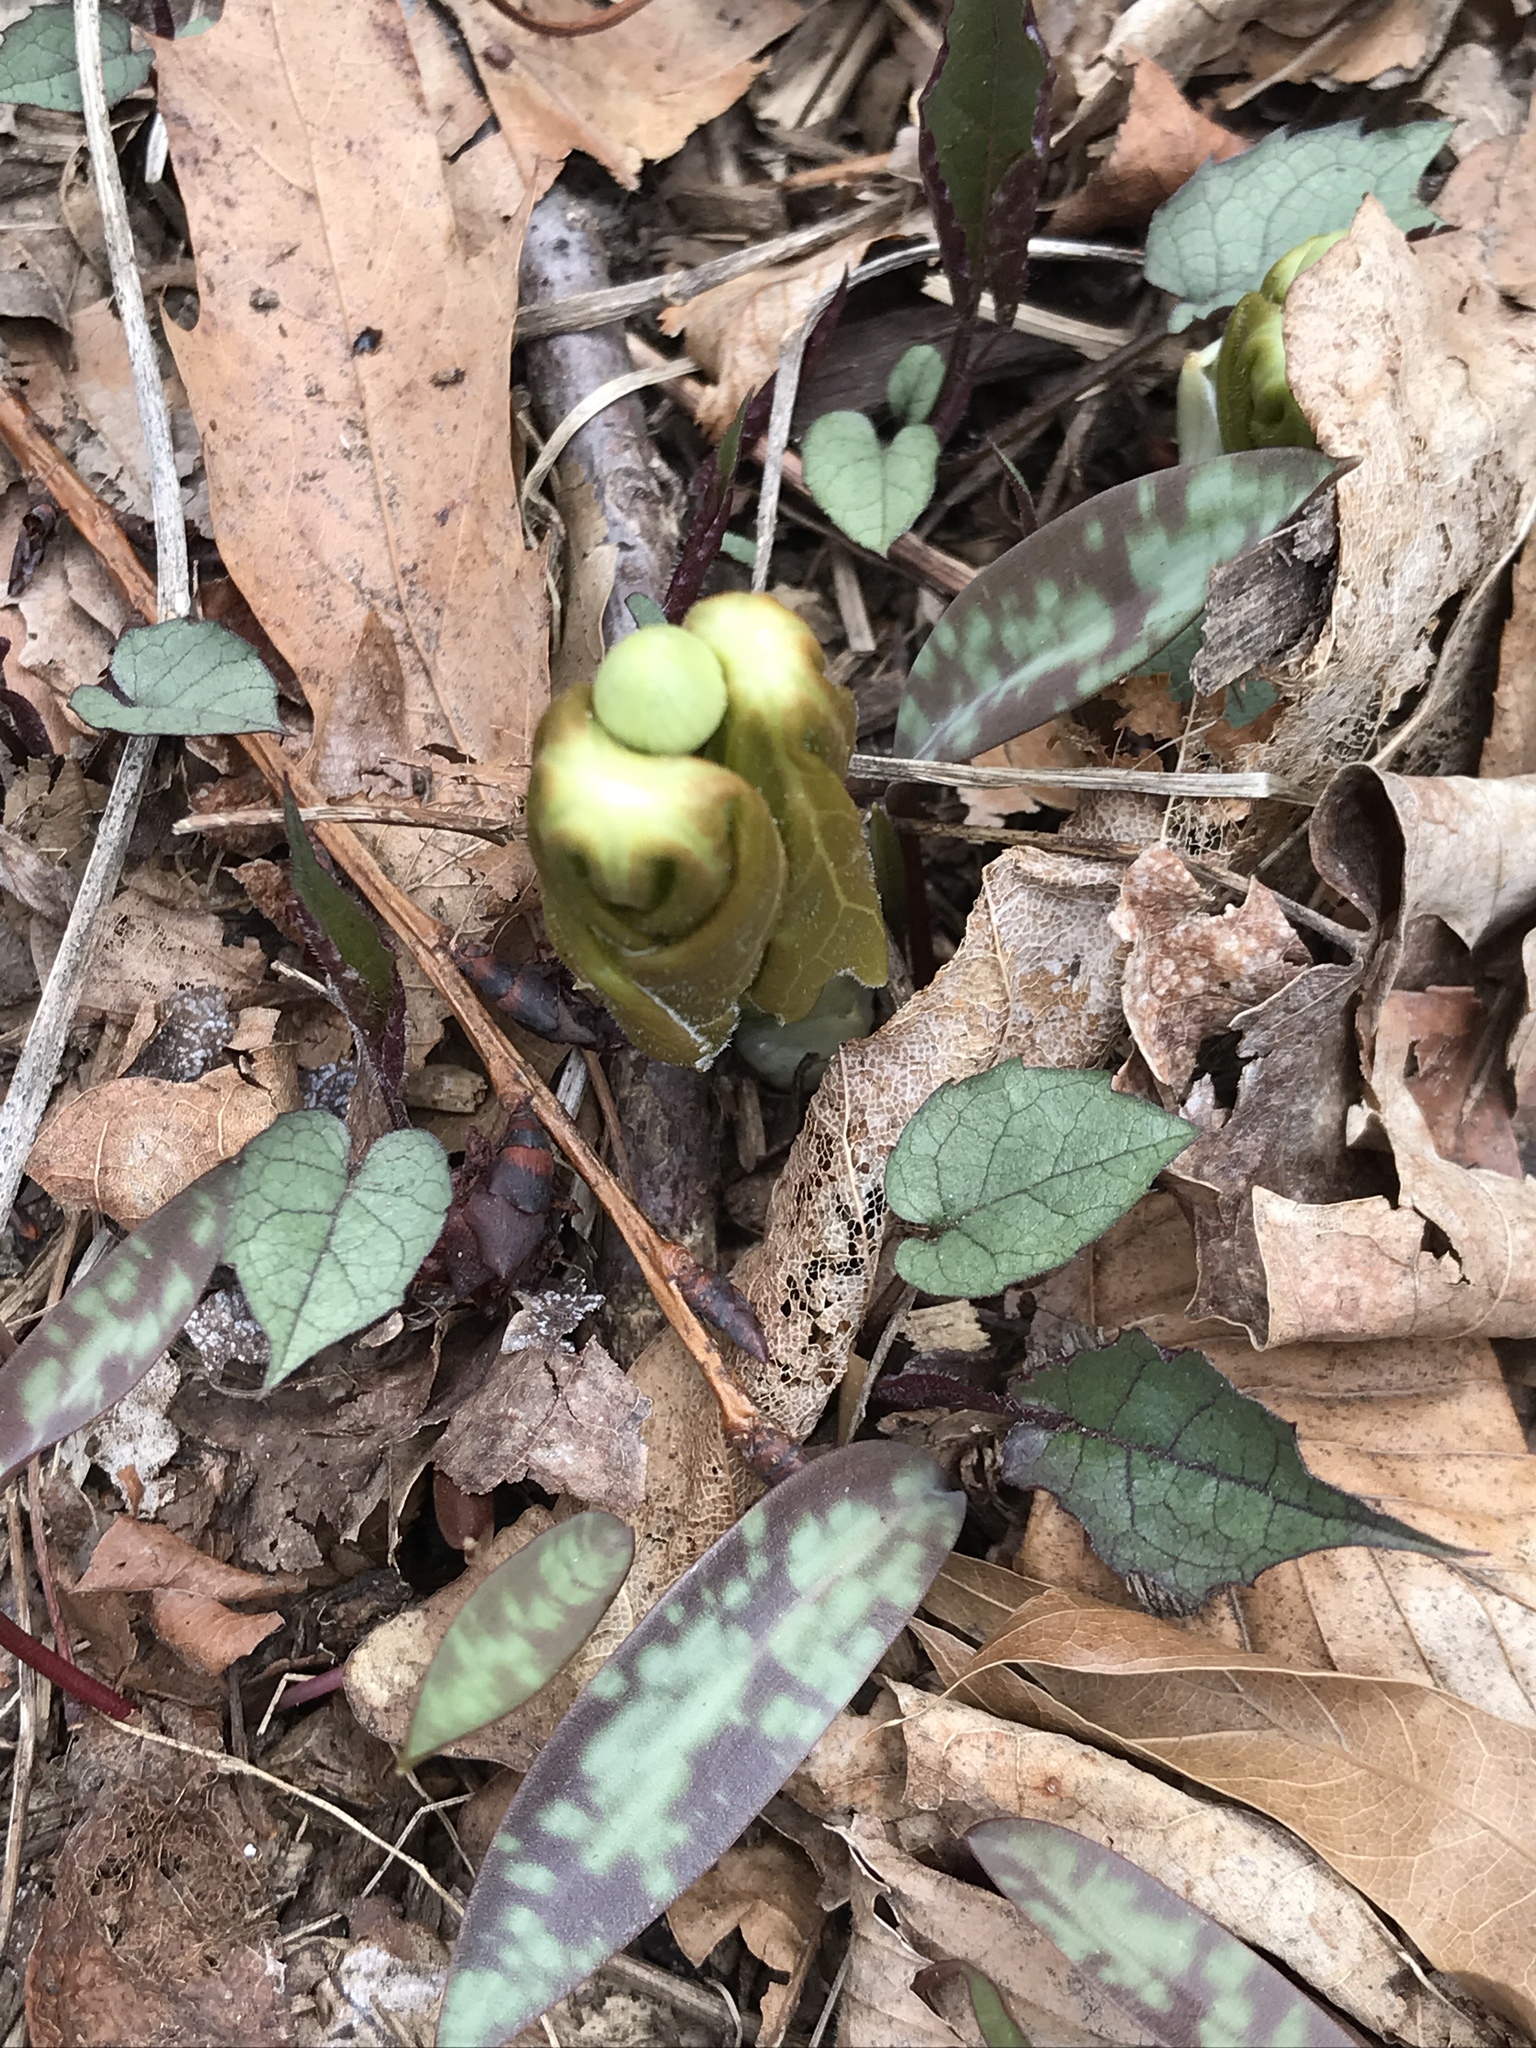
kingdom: Plantae
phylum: Tracheophyta
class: Magnoliopsida
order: Ranunculales
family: Berberidaceae
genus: Podophyllum
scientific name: Podophyllum peltatum
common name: Wild mandrake
